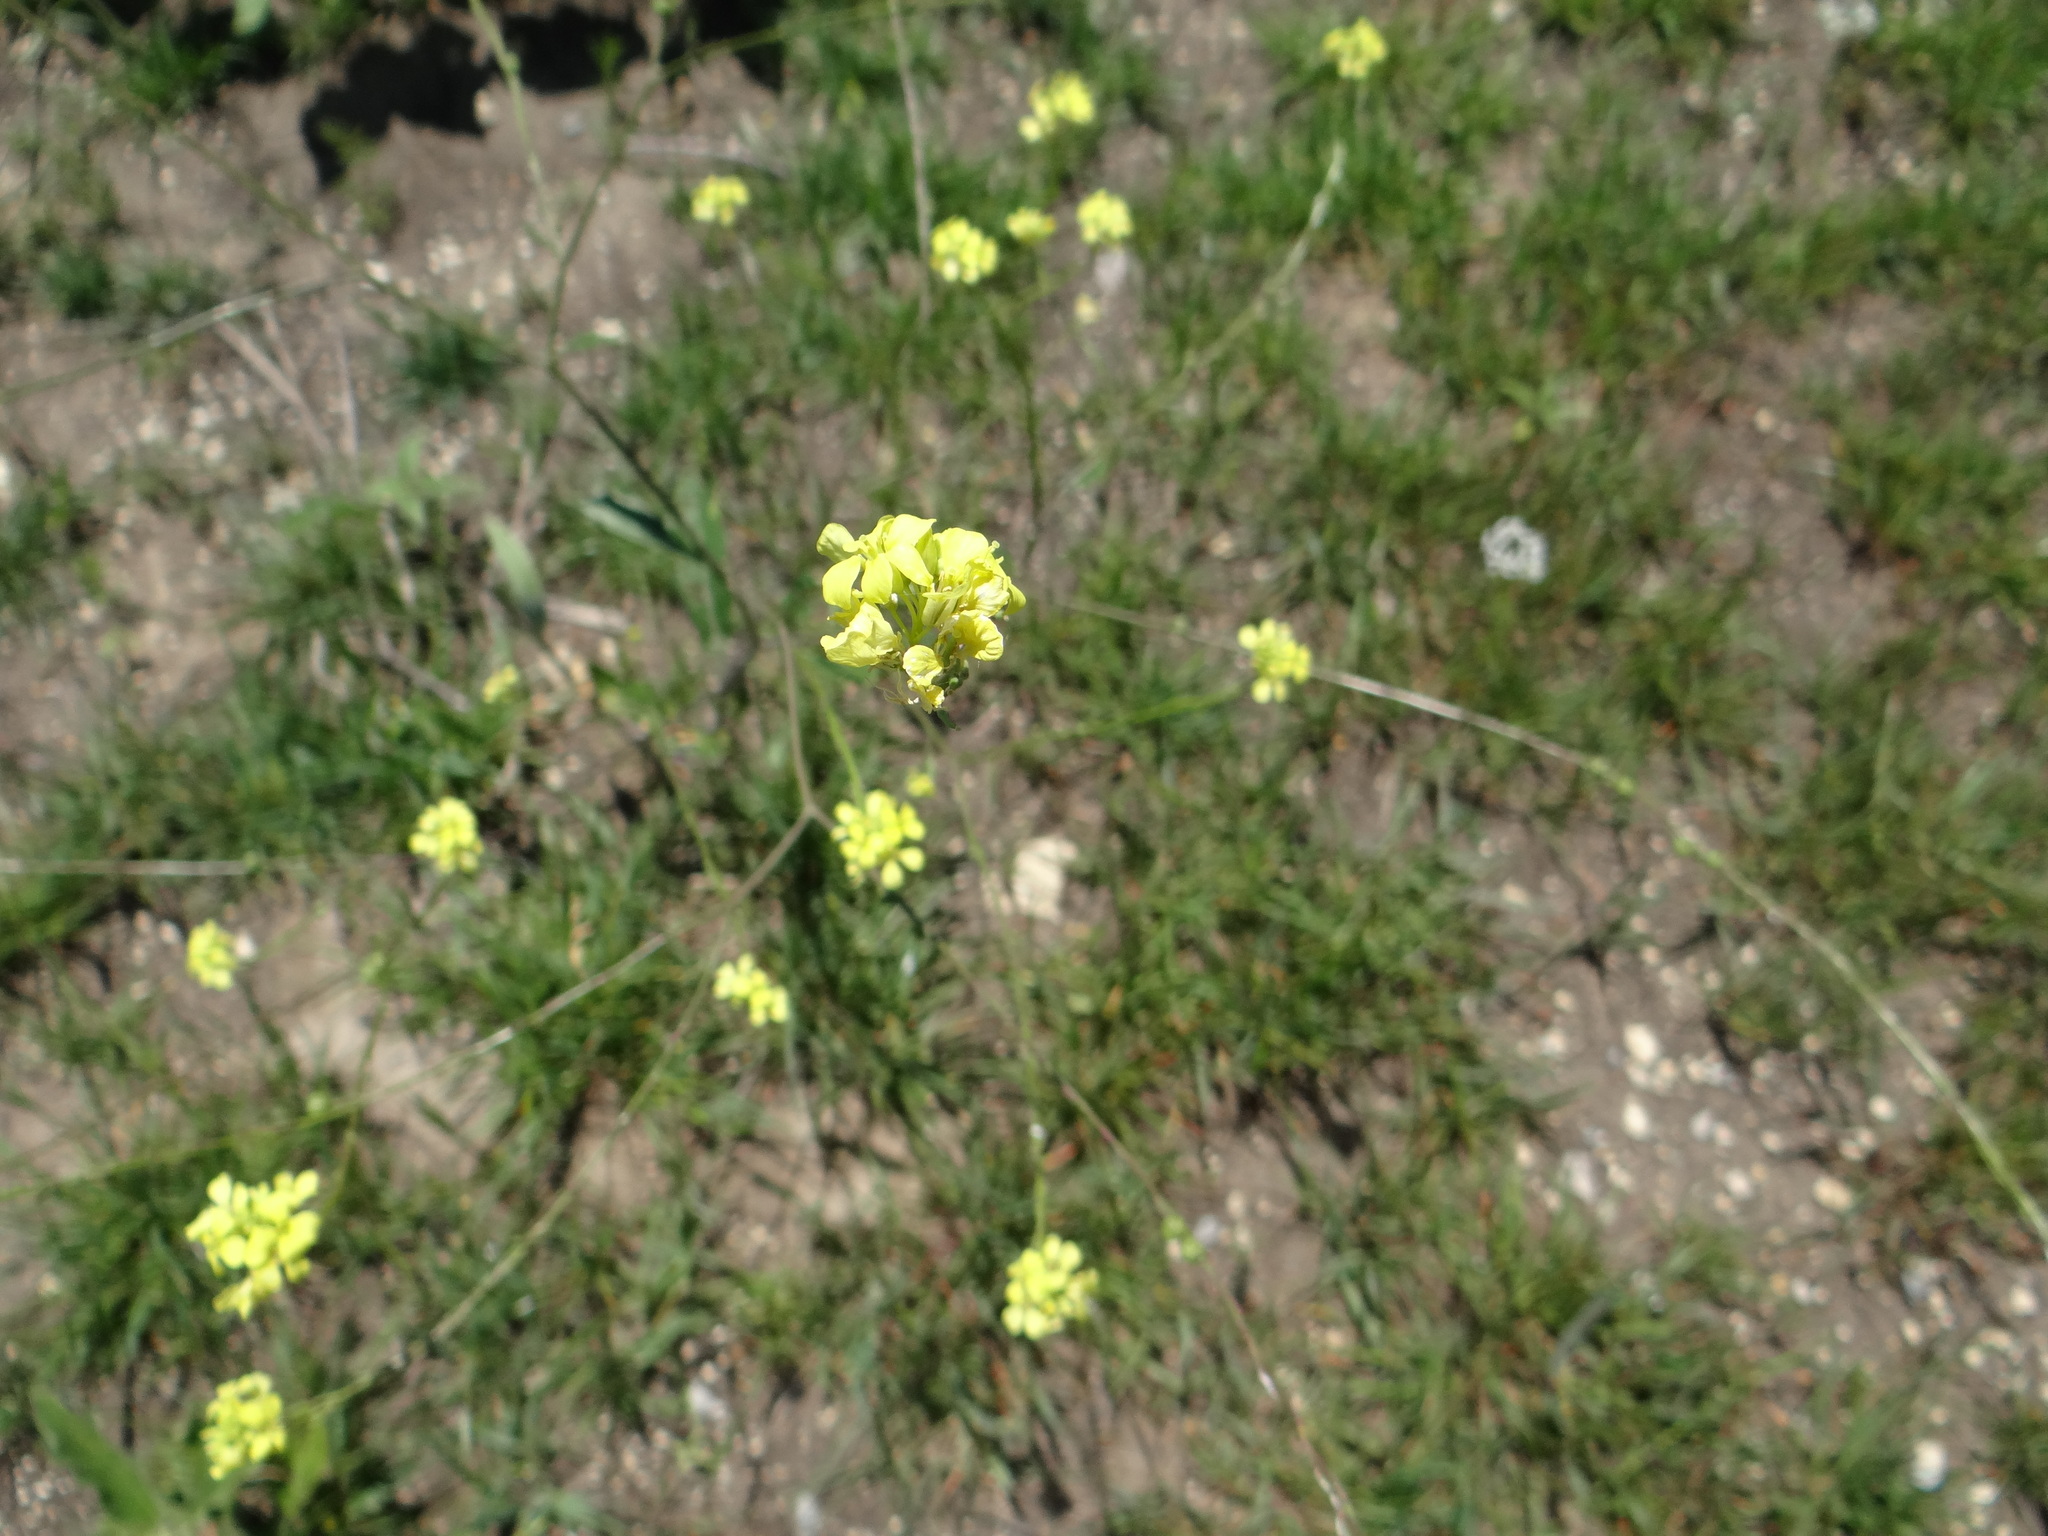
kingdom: Plantae
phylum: Tracheophyta
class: Magnoliopsida
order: Brassicales
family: Brassicaceae
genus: Rapistrum
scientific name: Rapistrum rugosum
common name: Annual bastardcabbage
